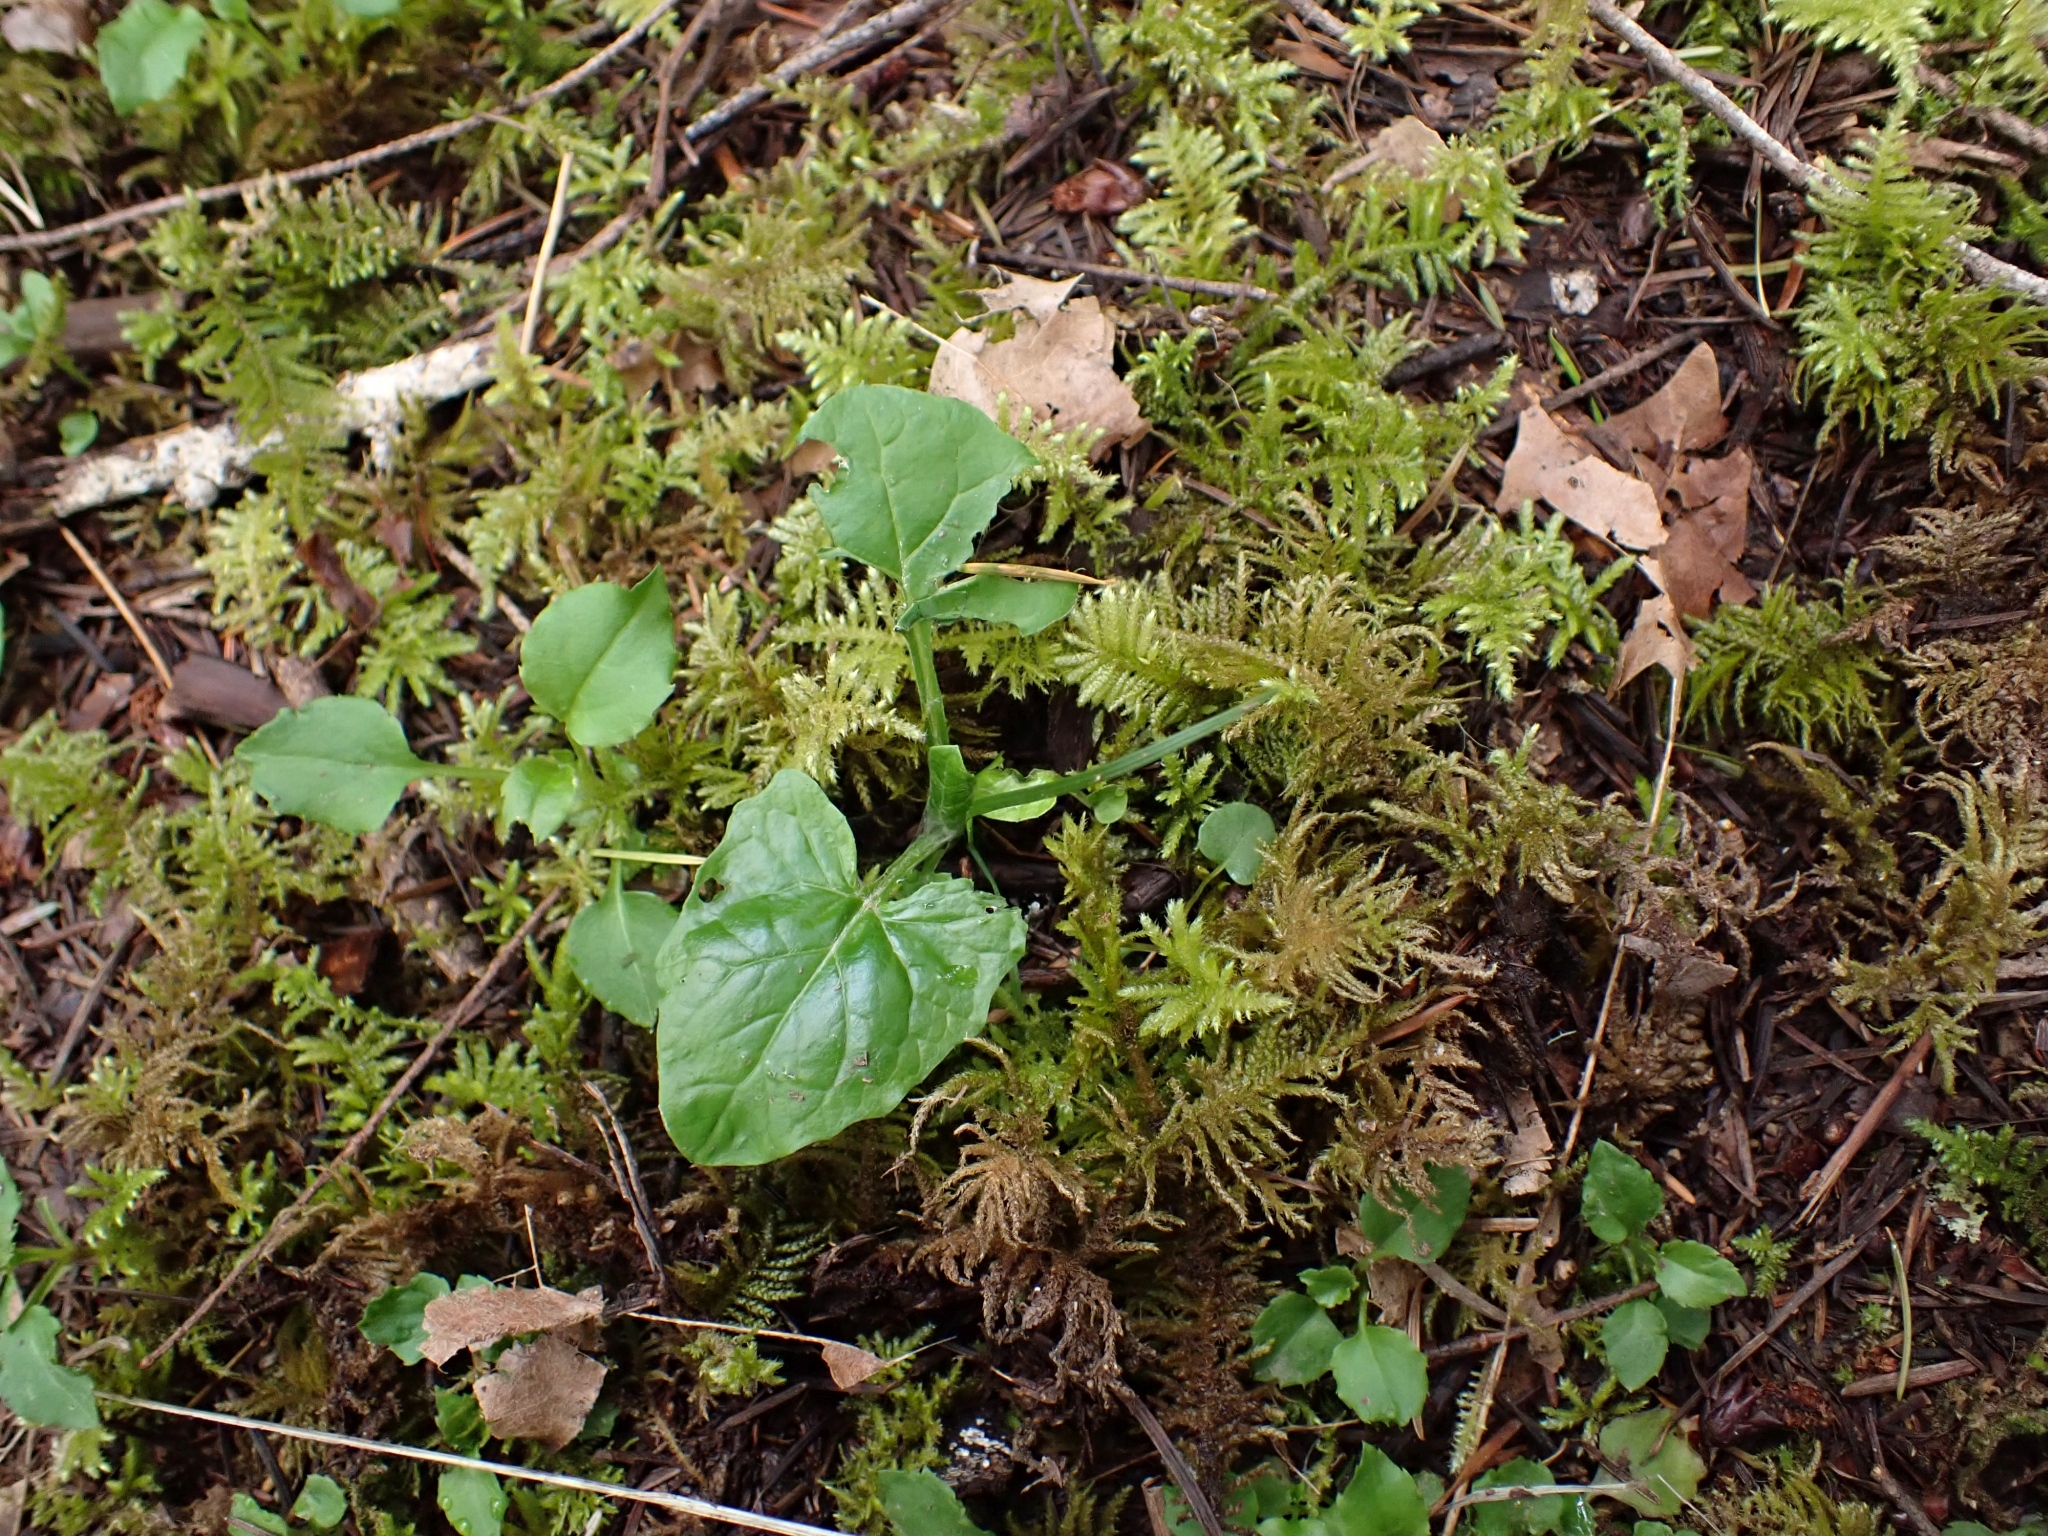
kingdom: Plantae
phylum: Tracheophyta
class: Magnoliopsida
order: Asterales
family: Asteraceae
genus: Adenocaulon
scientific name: Adenocaulon bicolor
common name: Trailplant
